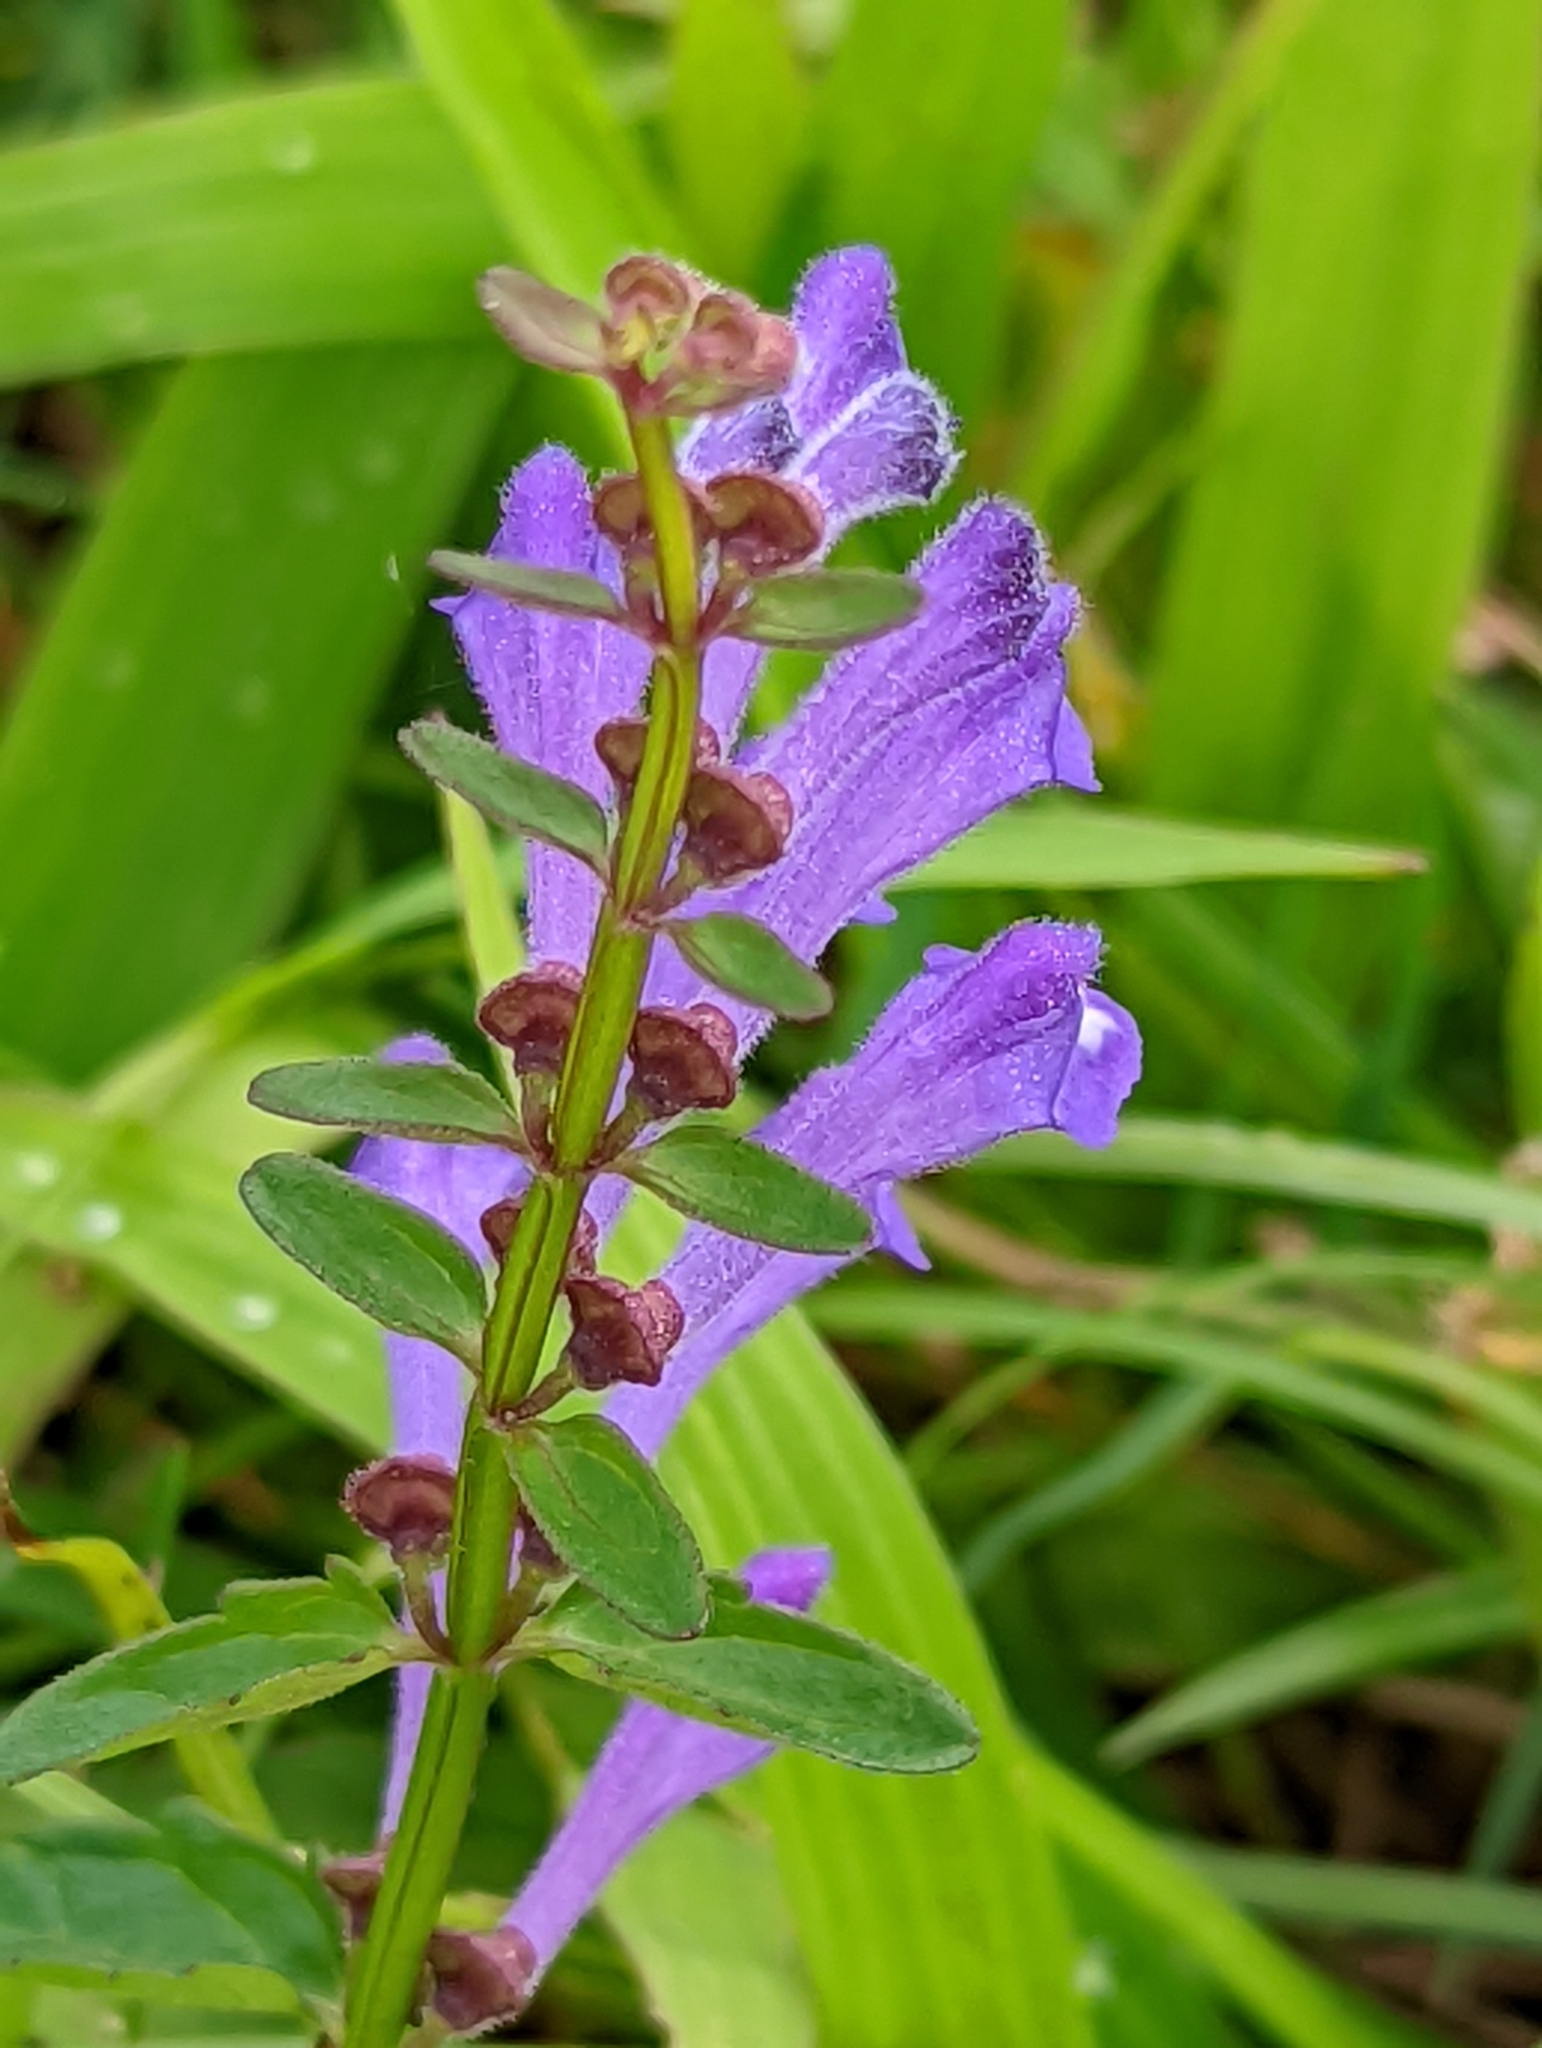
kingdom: Plantae
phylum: Tracheophyta
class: Magnoliopsida
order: Lamiales
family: Lamiaceae
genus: Scutellaria
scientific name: Scutellaria barbata
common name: Barbed skullcap
